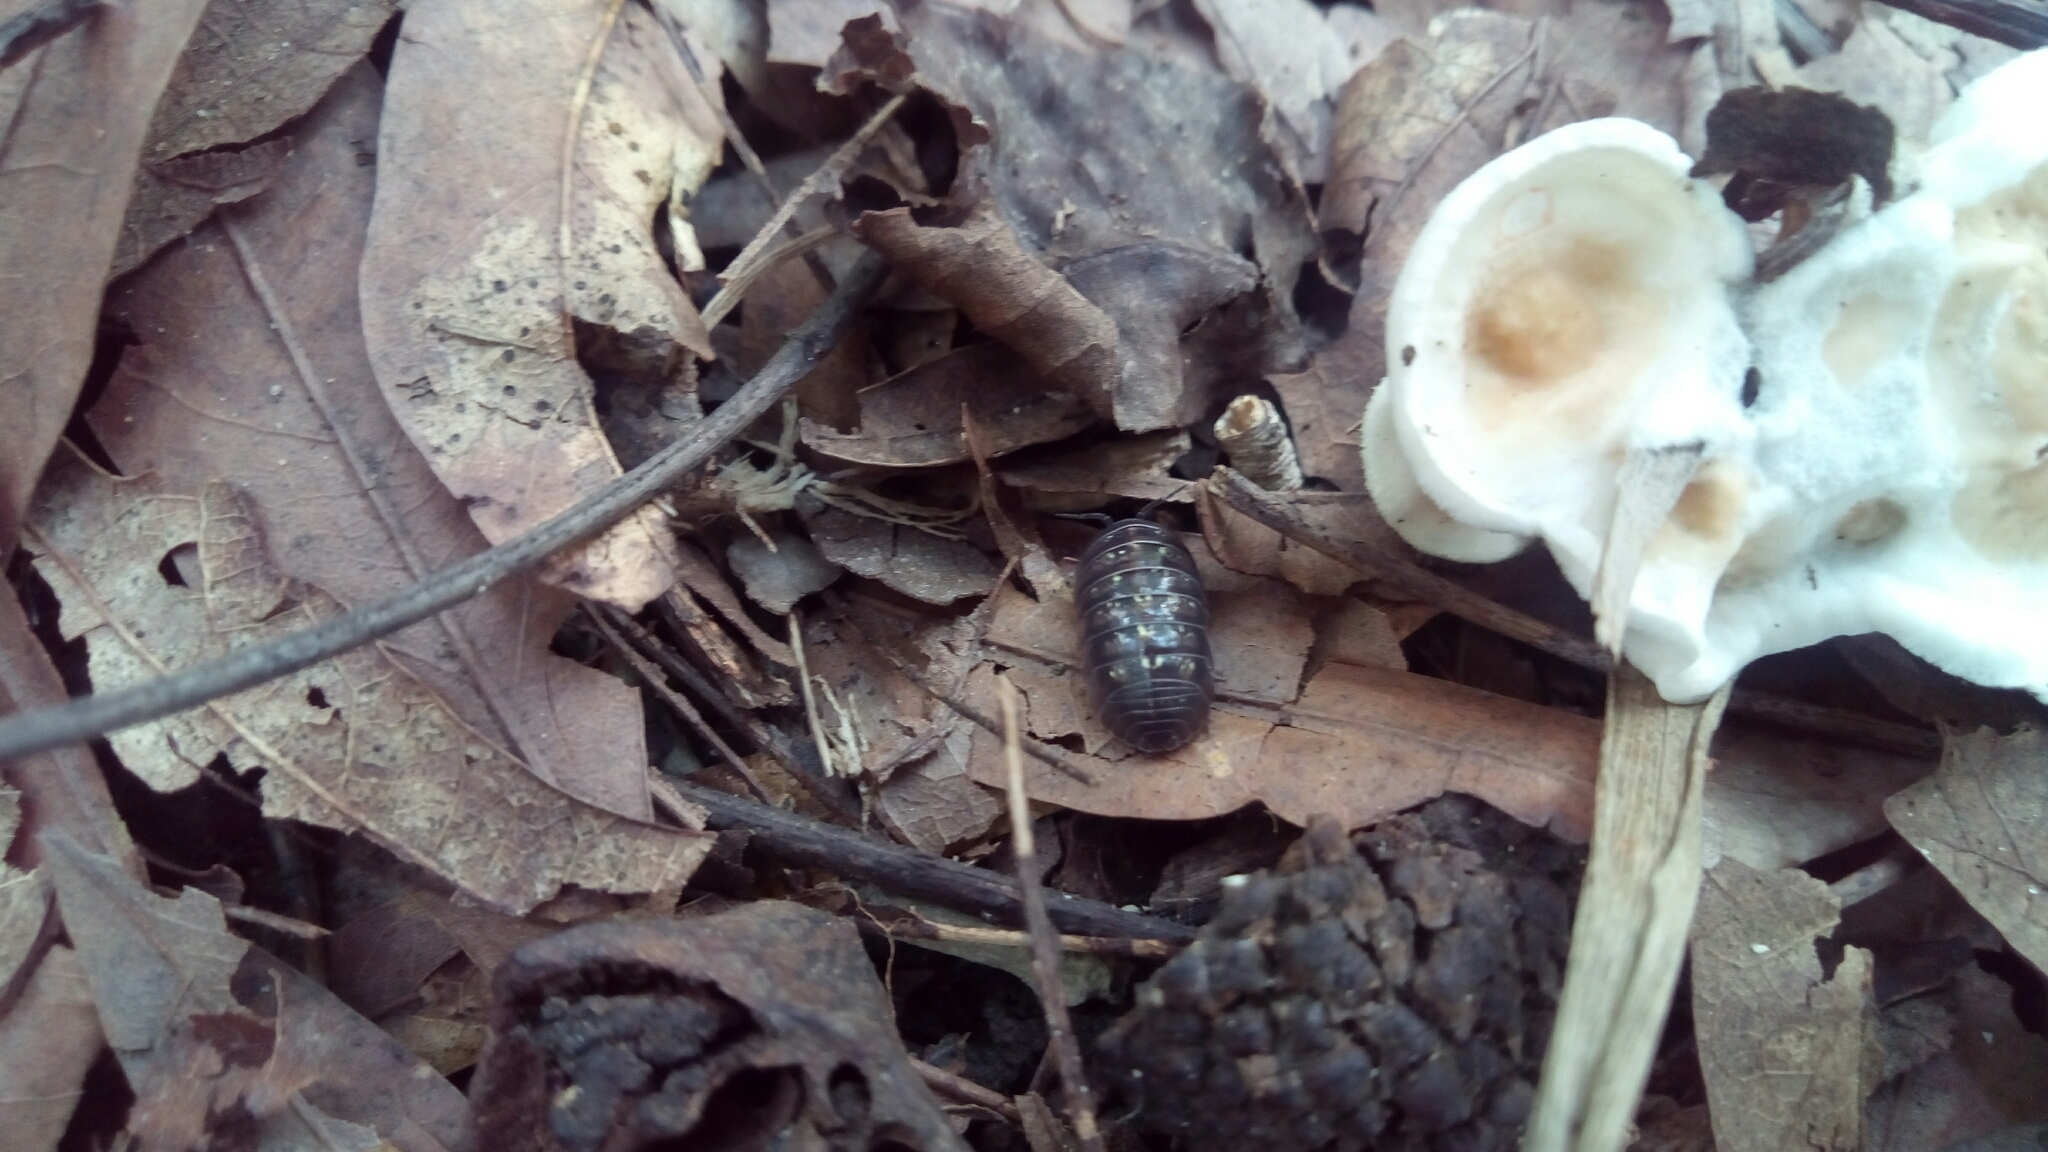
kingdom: Animalia
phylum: Arthropoda
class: Malacostraca
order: Isopoda
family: Armadillidiidae
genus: Armadillidium
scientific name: Armadillidium vulgare
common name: Common pill woodlouse
